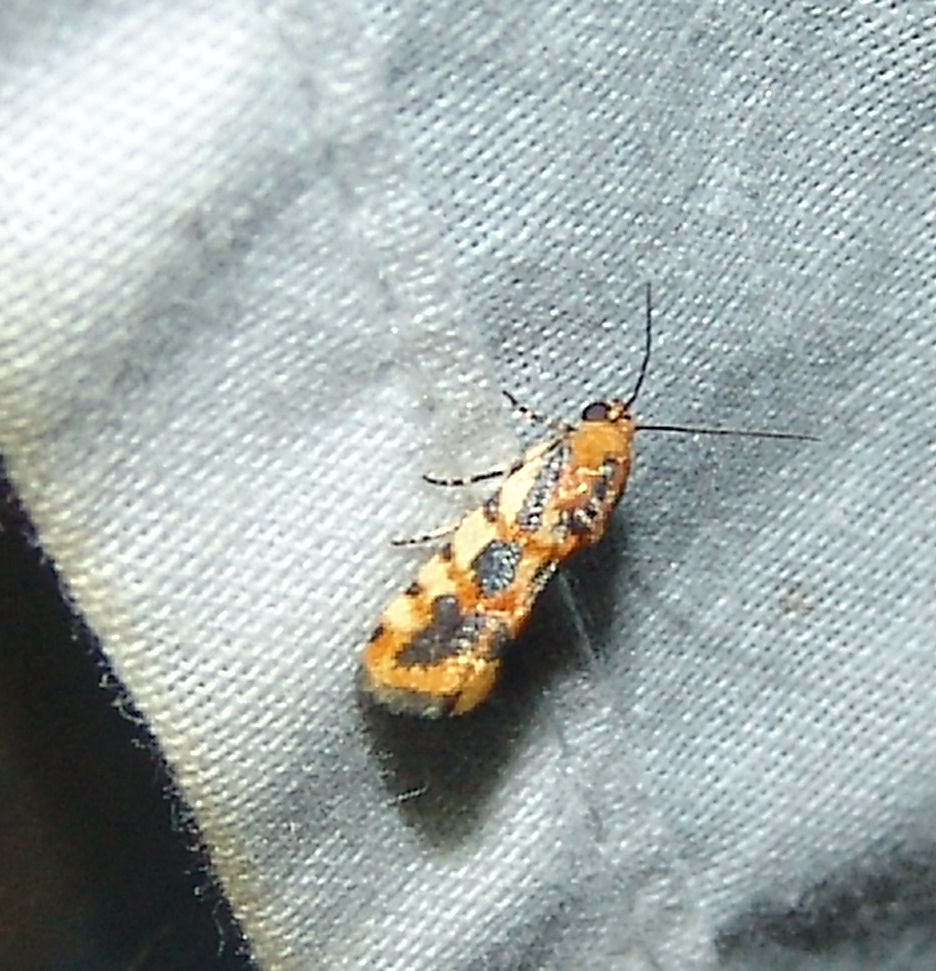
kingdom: Animalia
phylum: Arthropoda
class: Insecta
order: Lepidoptera
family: Noctuidae
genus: Acontia
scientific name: Acontia leo
